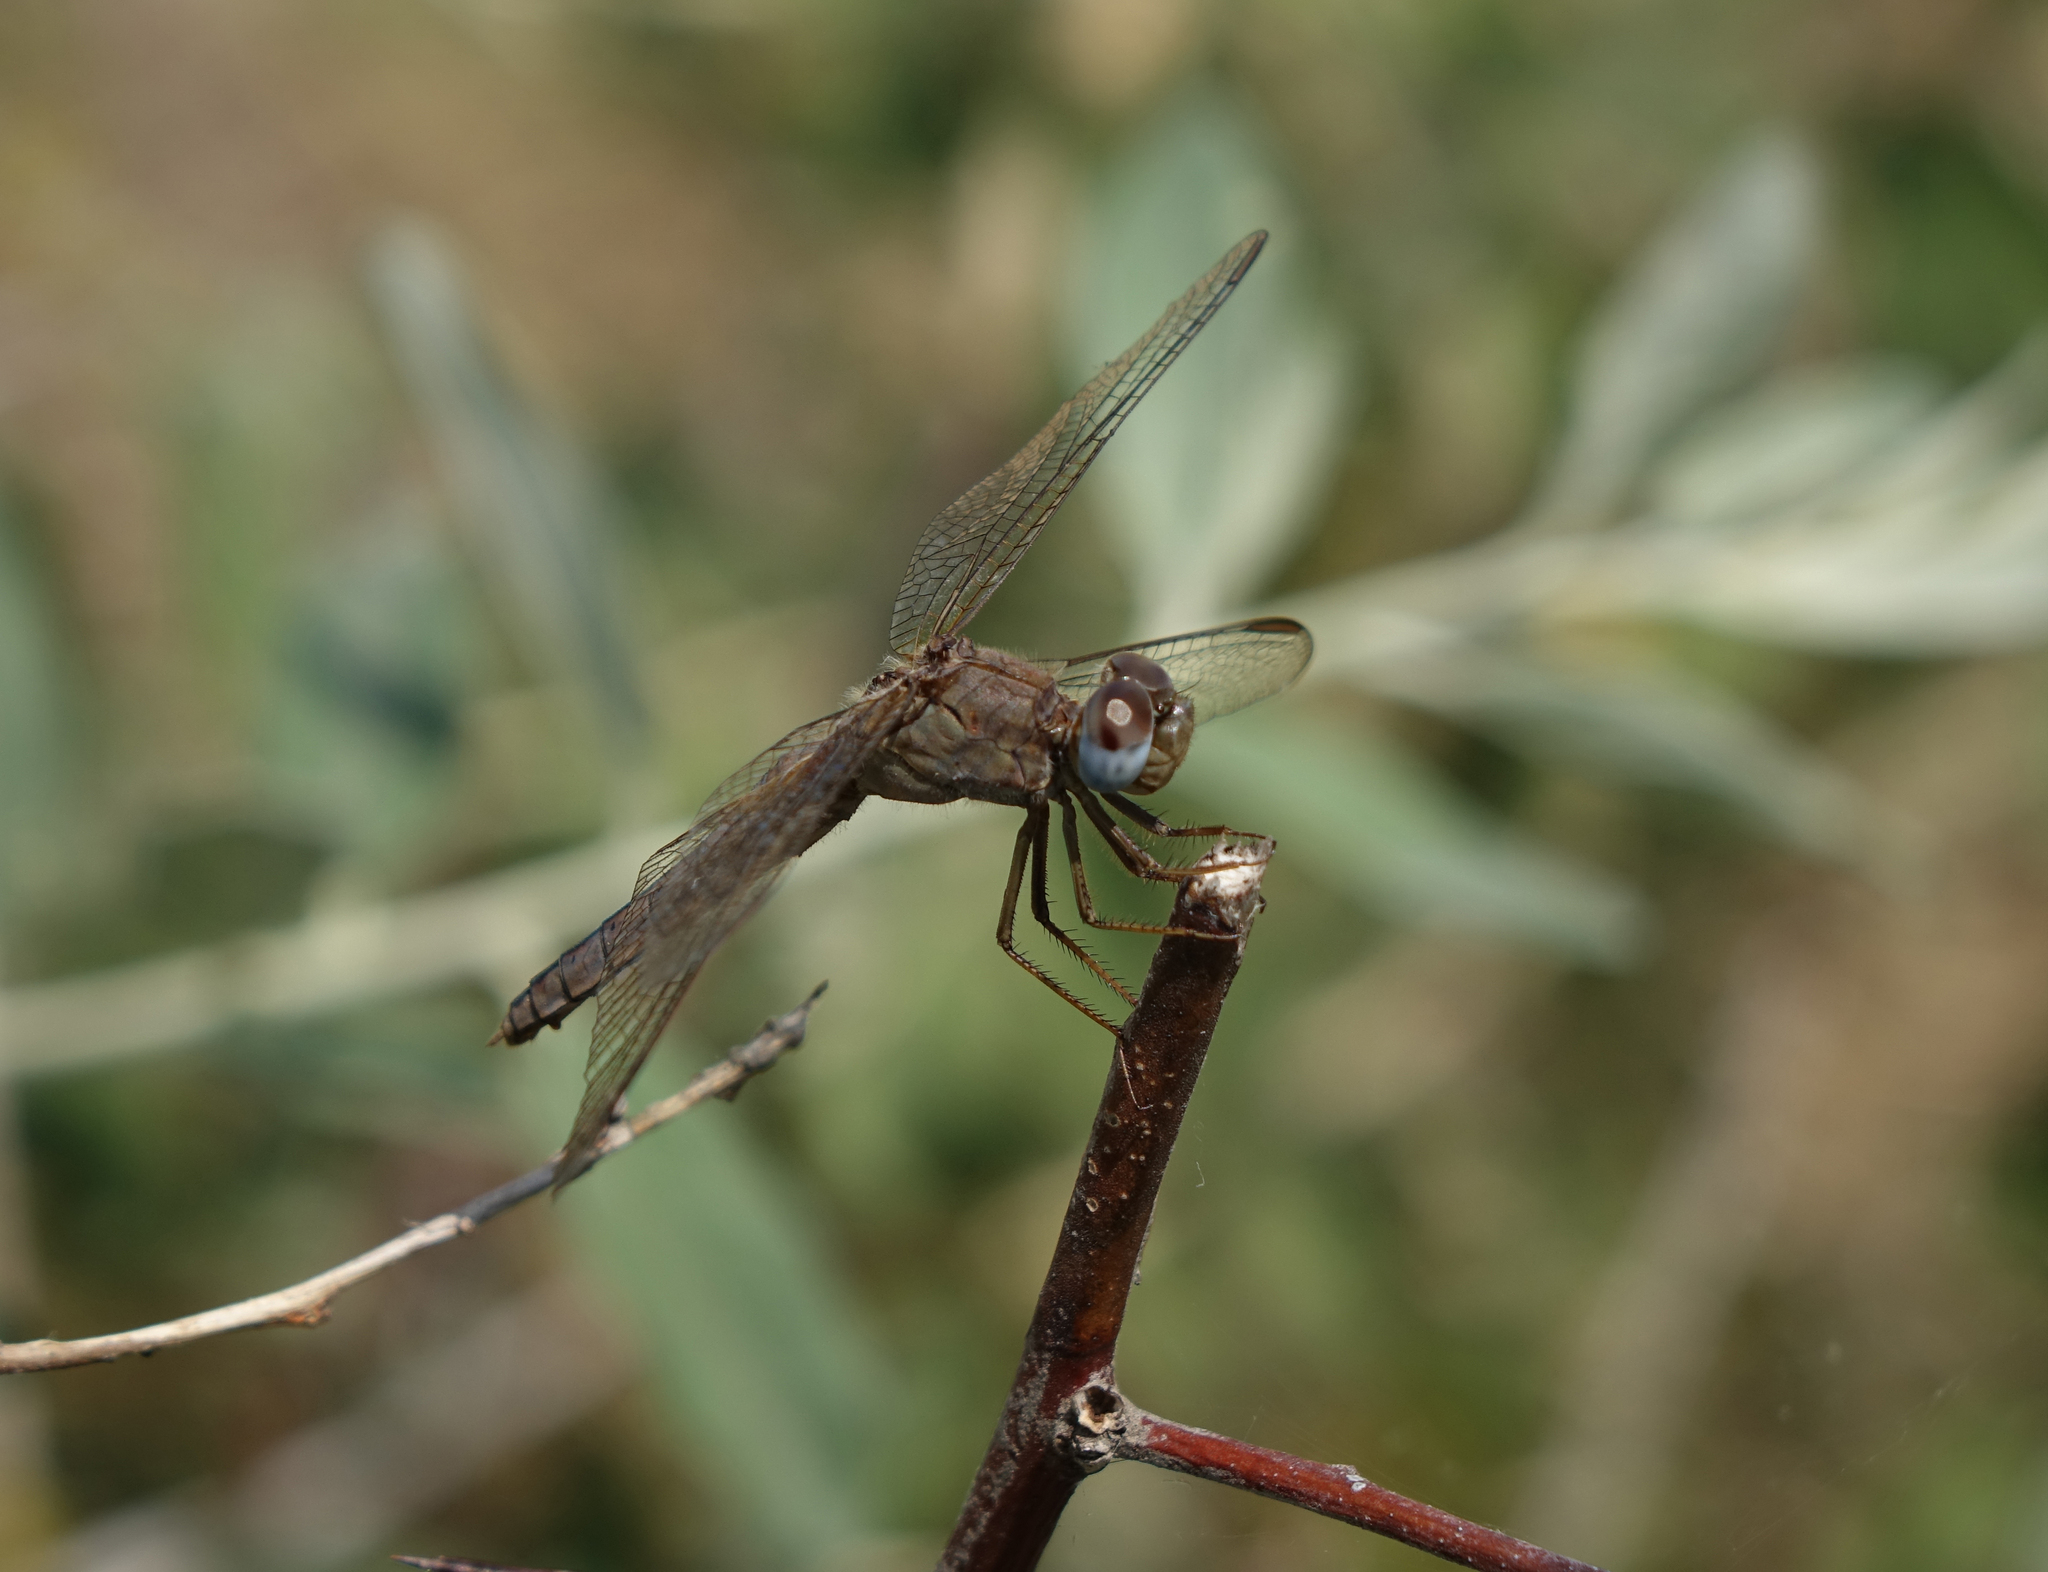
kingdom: Animalia
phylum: Arthropoda
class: Insecta
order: Odonata
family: Libellulidae
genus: Crocothemis
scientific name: Crocothemis erythraea
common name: Scarlet dragonfly
